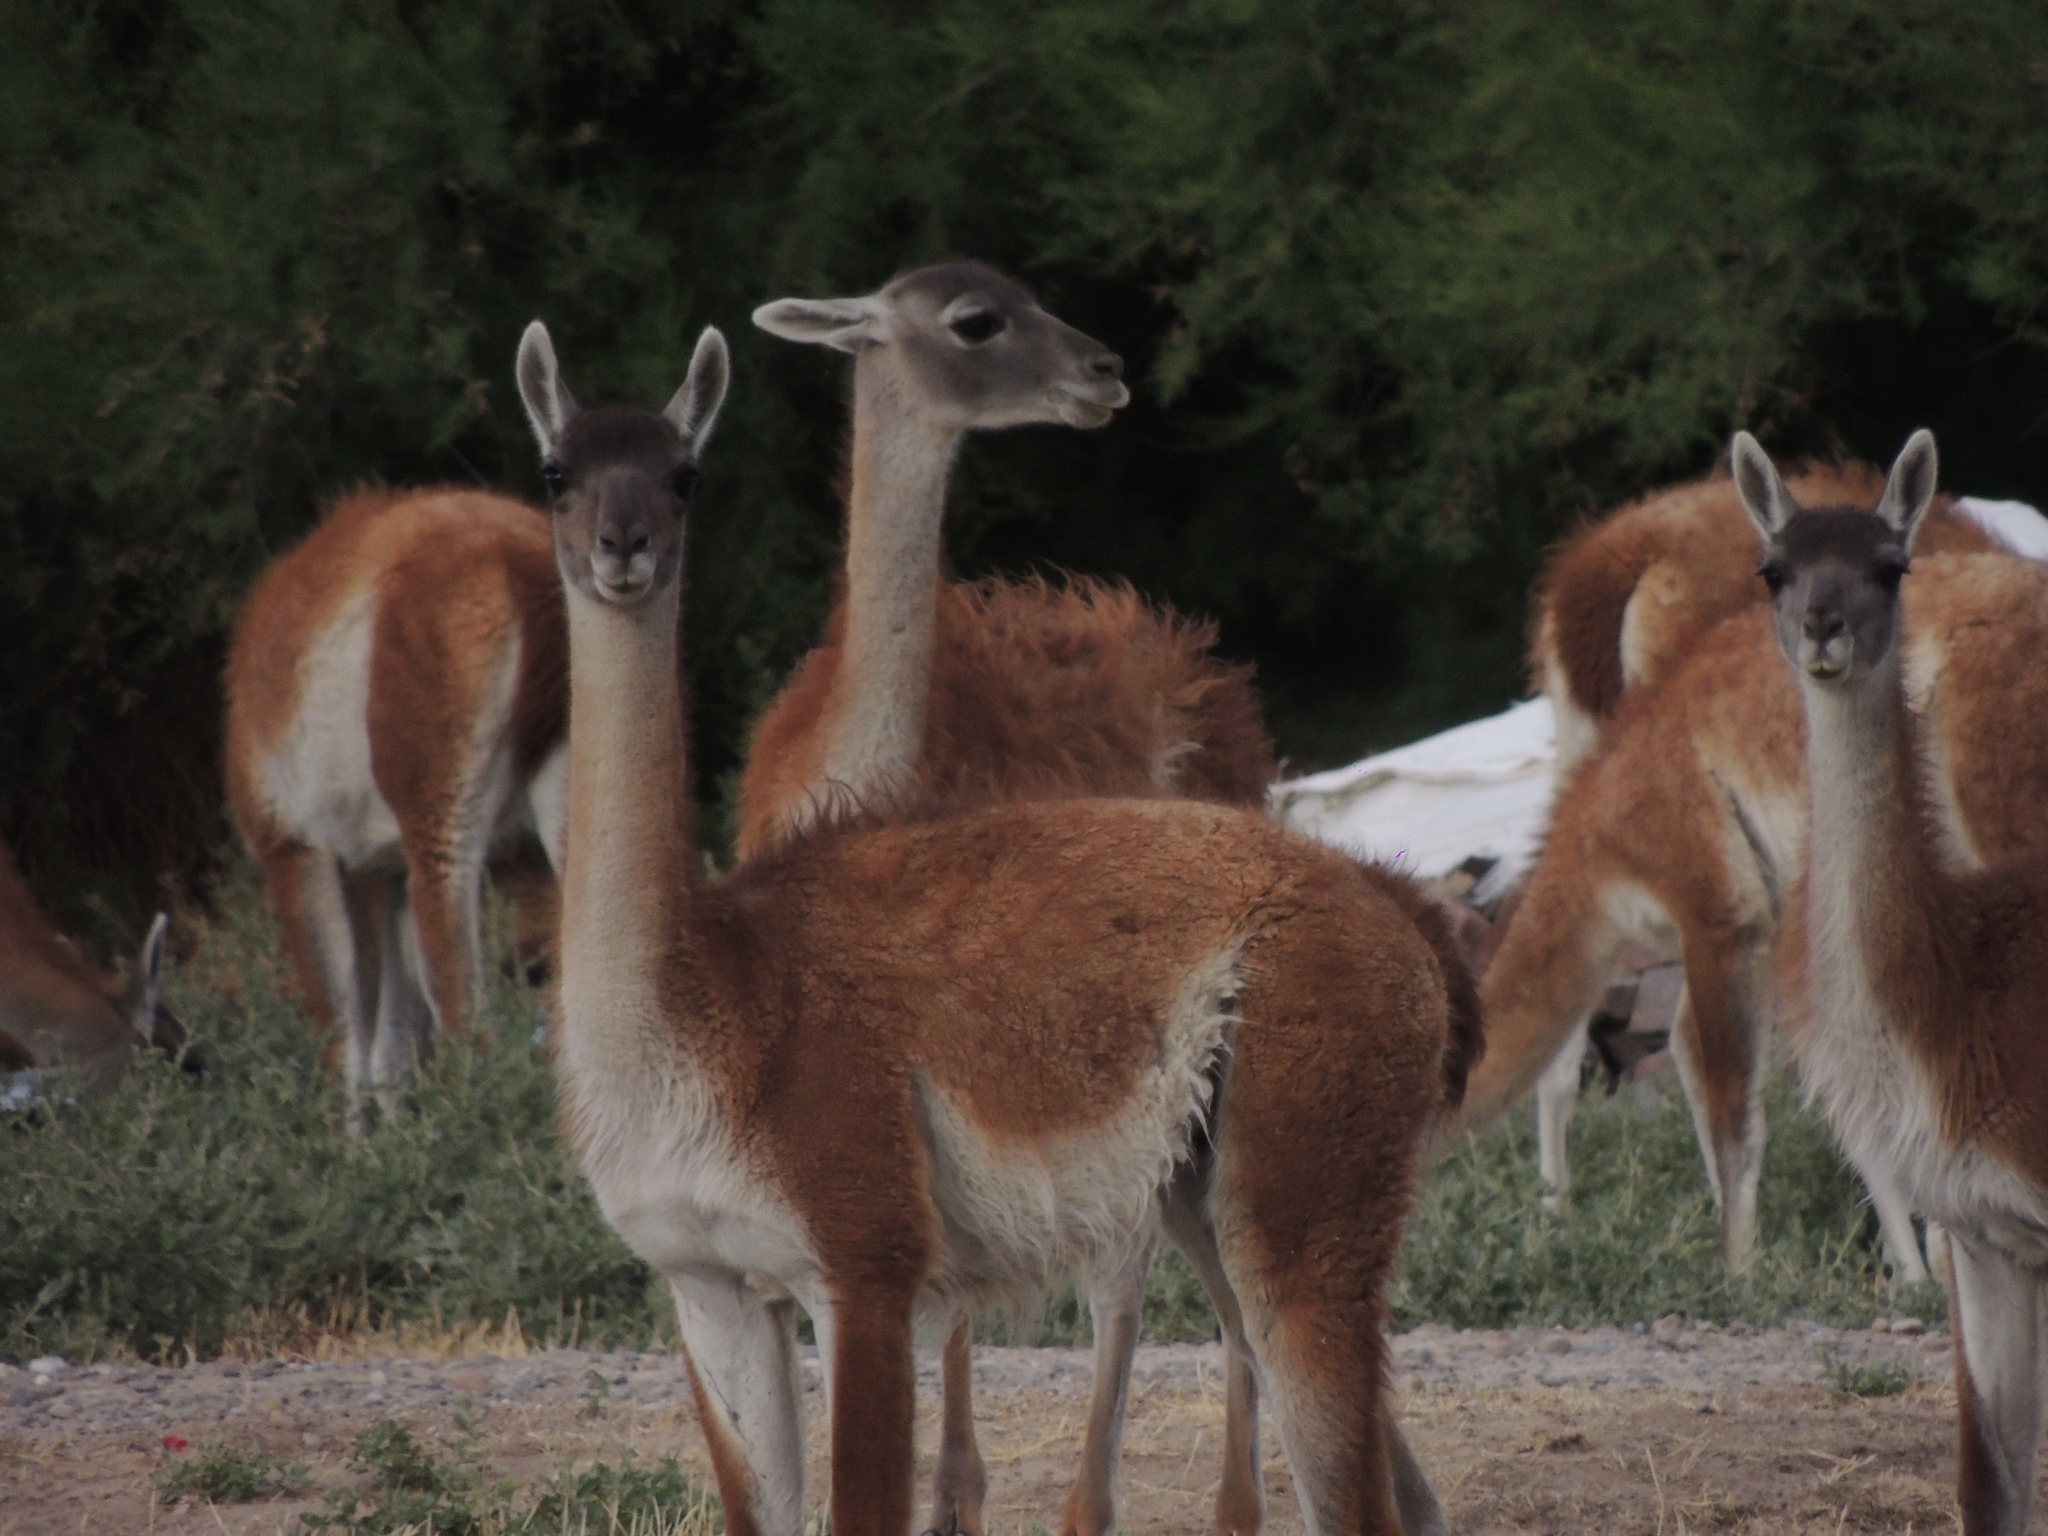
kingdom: Animalia
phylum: Chordata
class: Mammalia
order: Artiodactyla
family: Camelidae
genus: Lama
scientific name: Lama glama
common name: Llama
